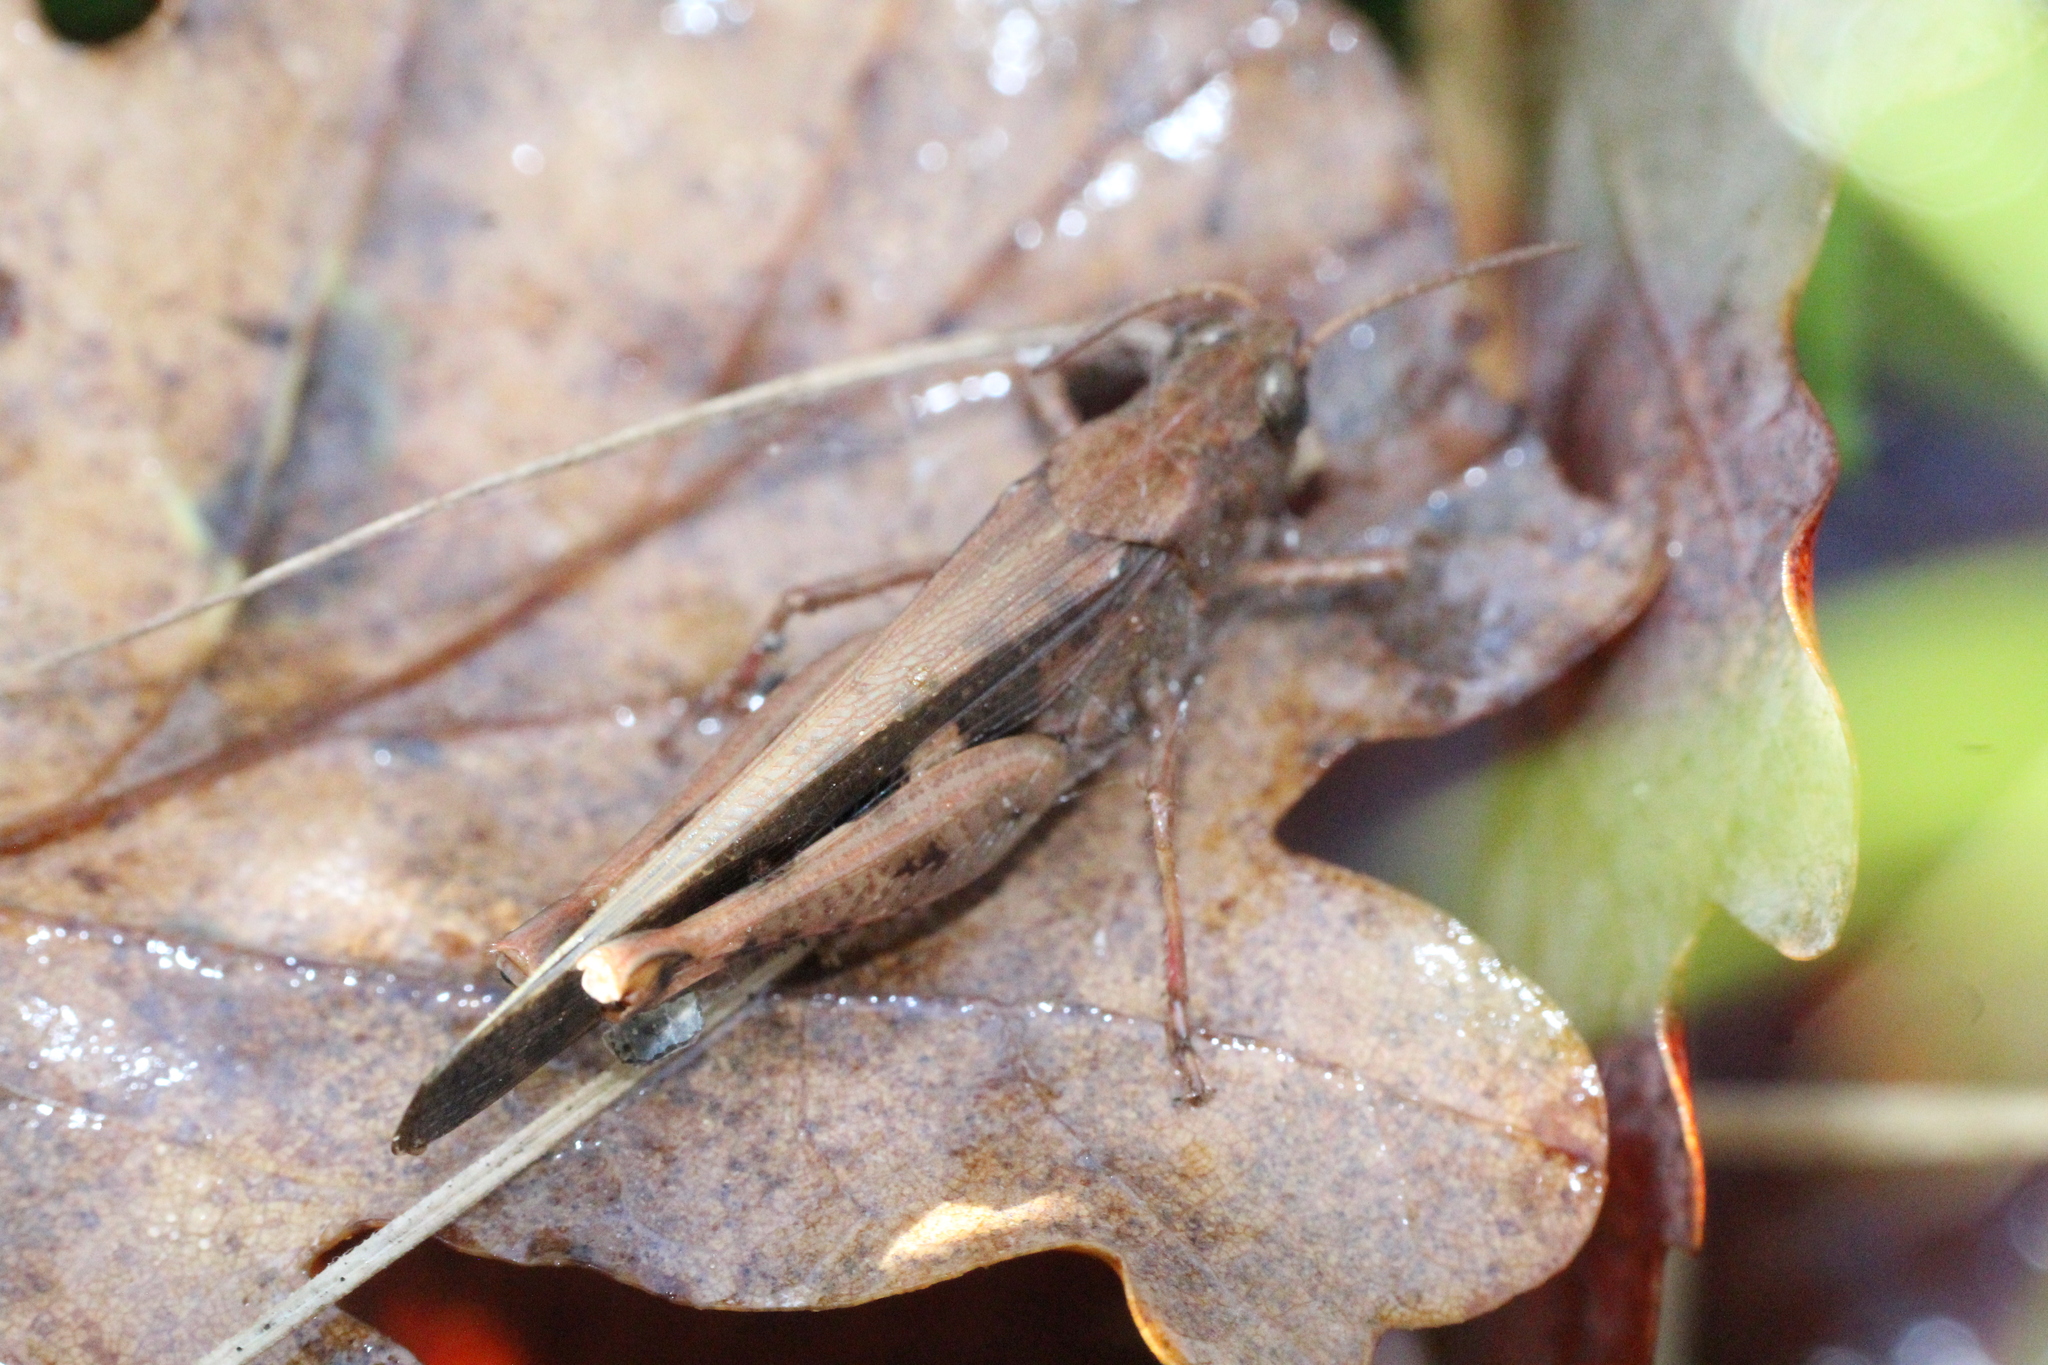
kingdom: Animalia
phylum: Arthropoda
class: Insecta
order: Orthoptera
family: Acrididae
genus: Aiolopus
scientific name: Aiolopus strepens
